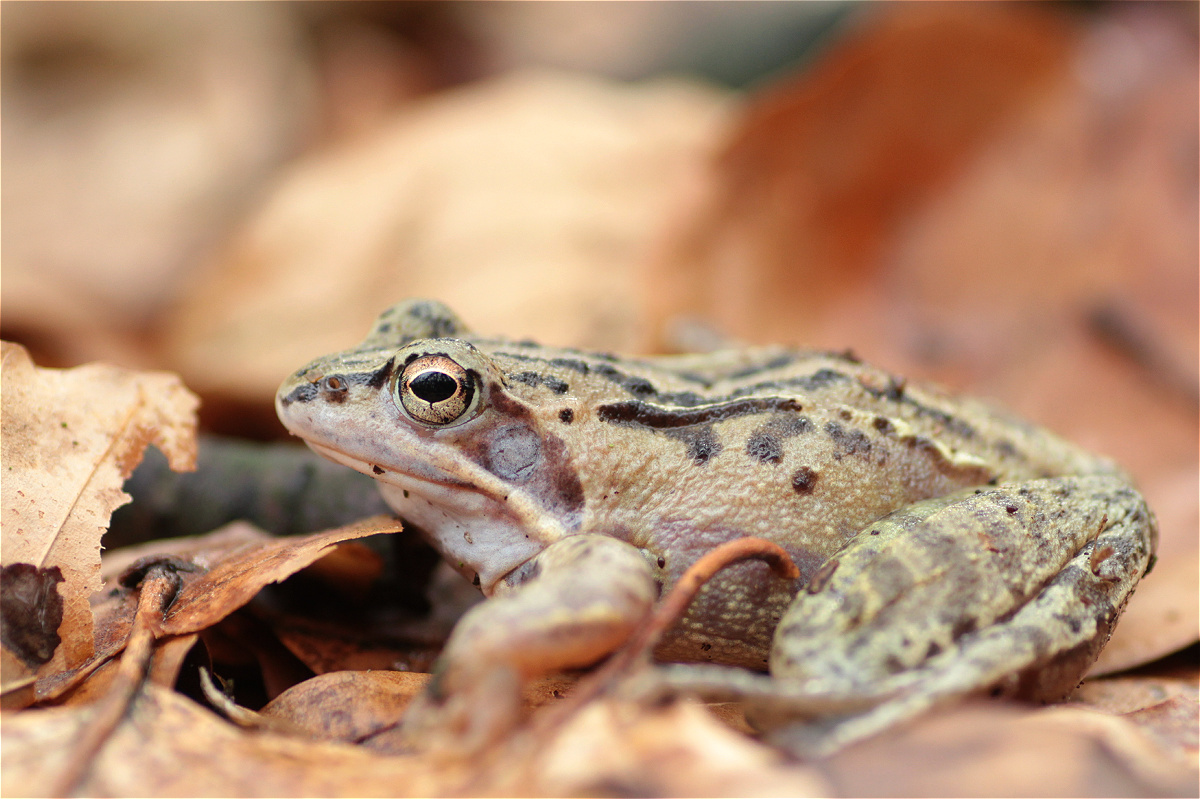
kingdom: Animalia
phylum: Chordata
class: Amphibia
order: Anura
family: Ranidae
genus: Rana
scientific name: Rana arvalis
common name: Moor frog
